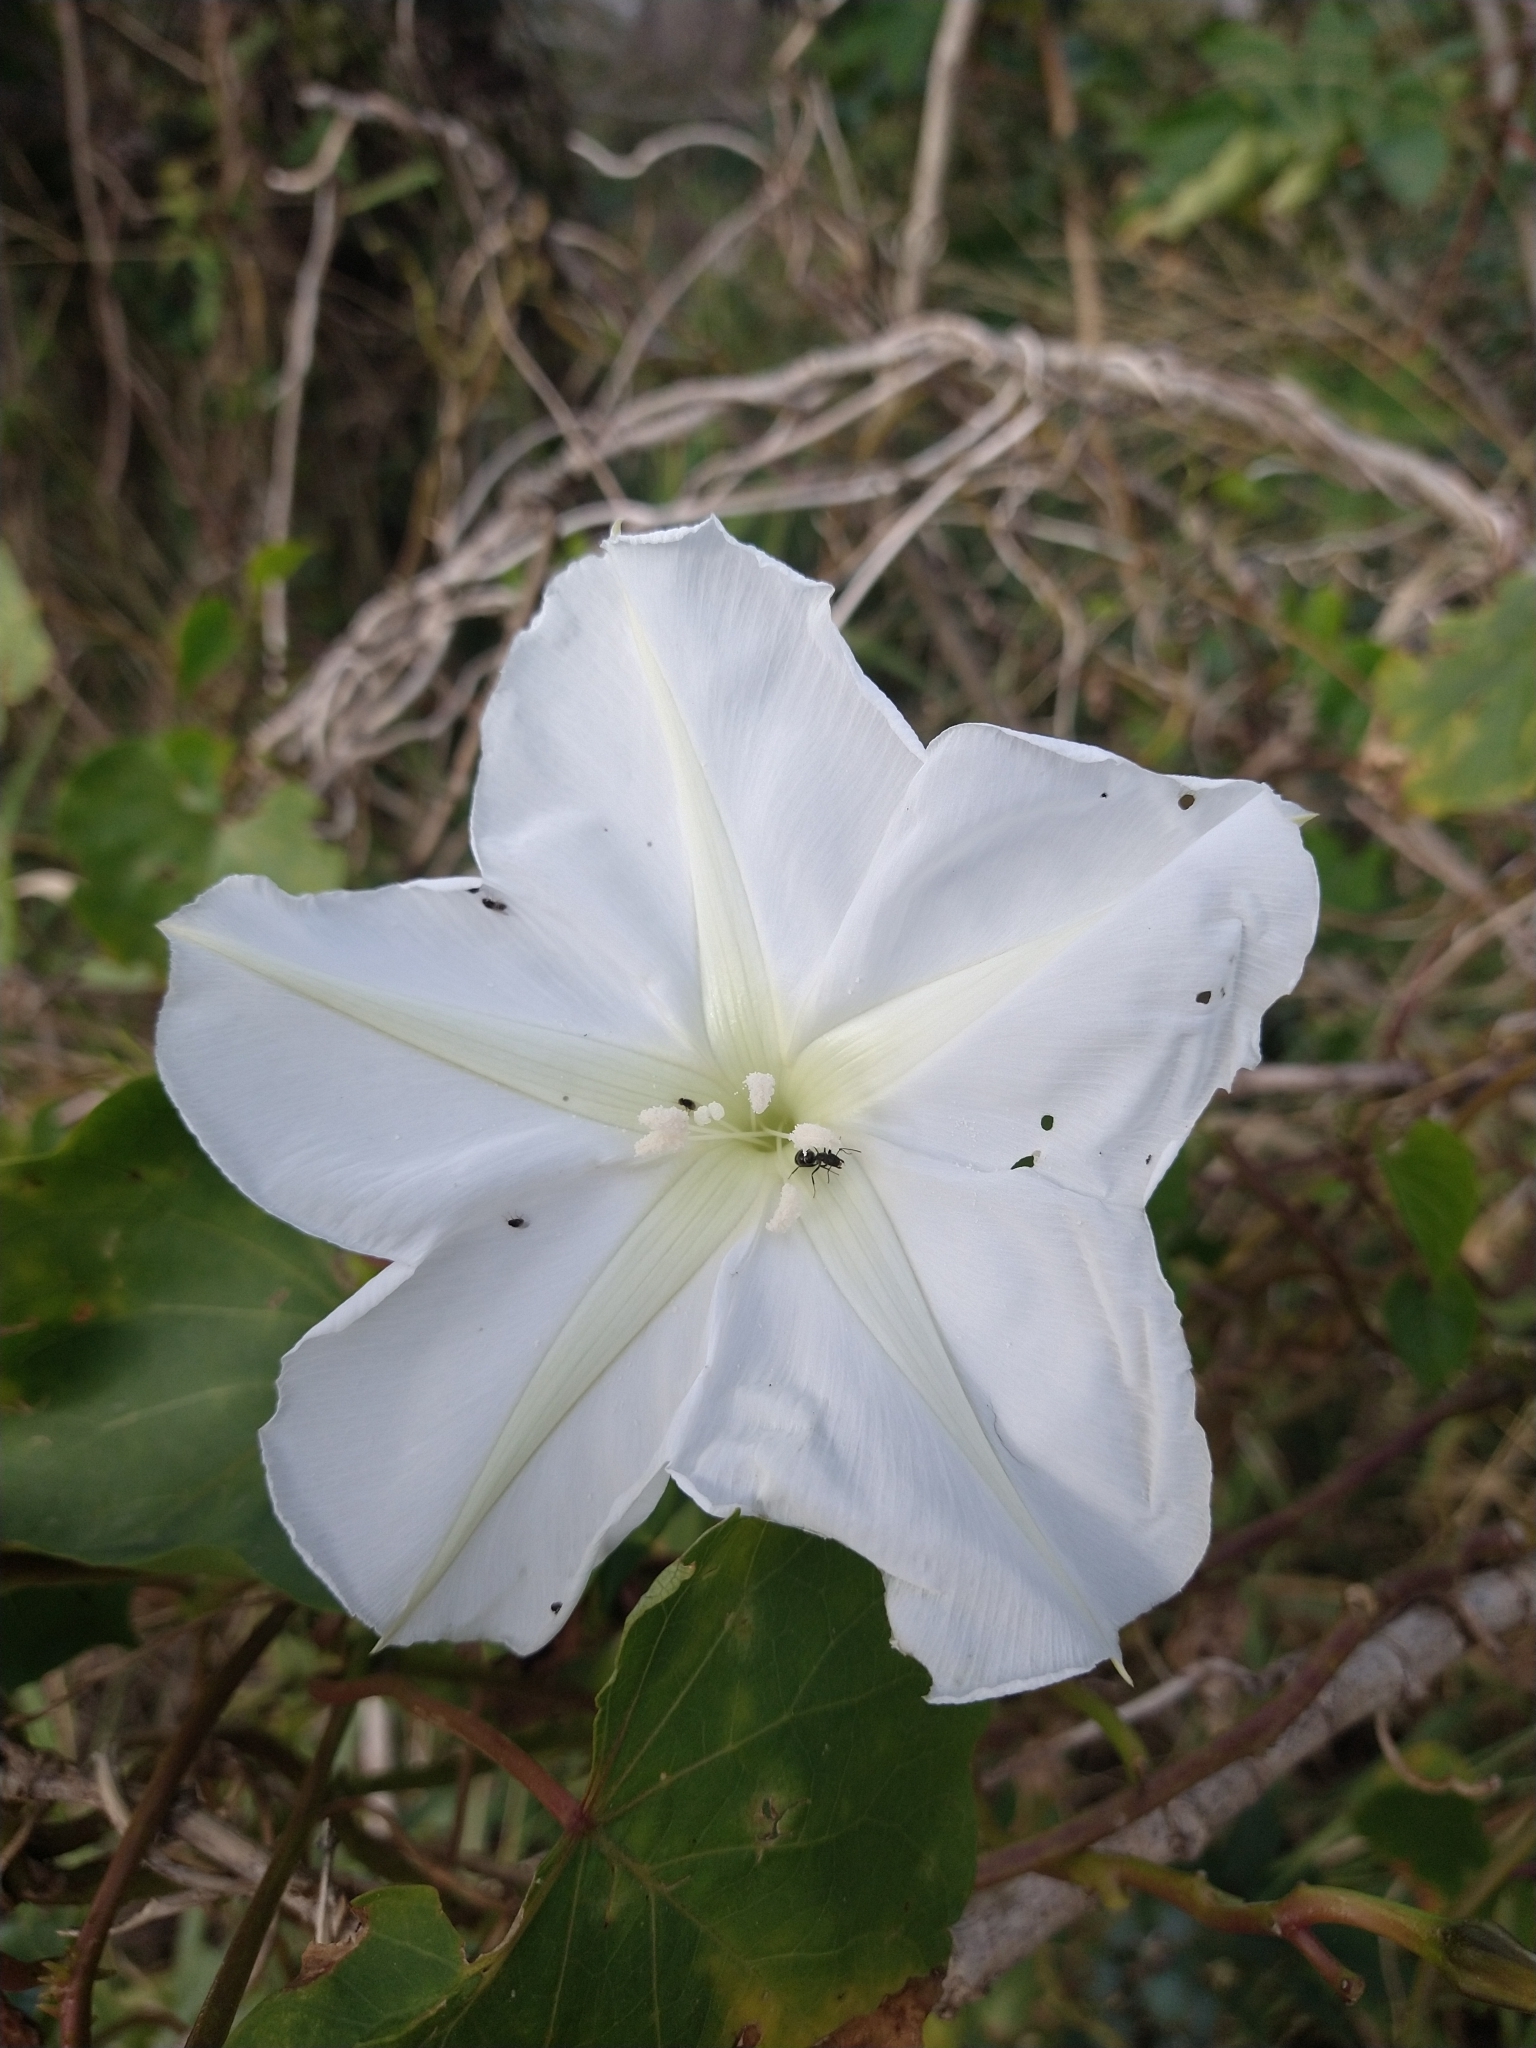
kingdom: Plantae
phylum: Tracheophyta
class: Magnoliopsida
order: Solanales
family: Convolvulaceae
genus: Ipomoea
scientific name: Ipomoea alba
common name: Moonflower
